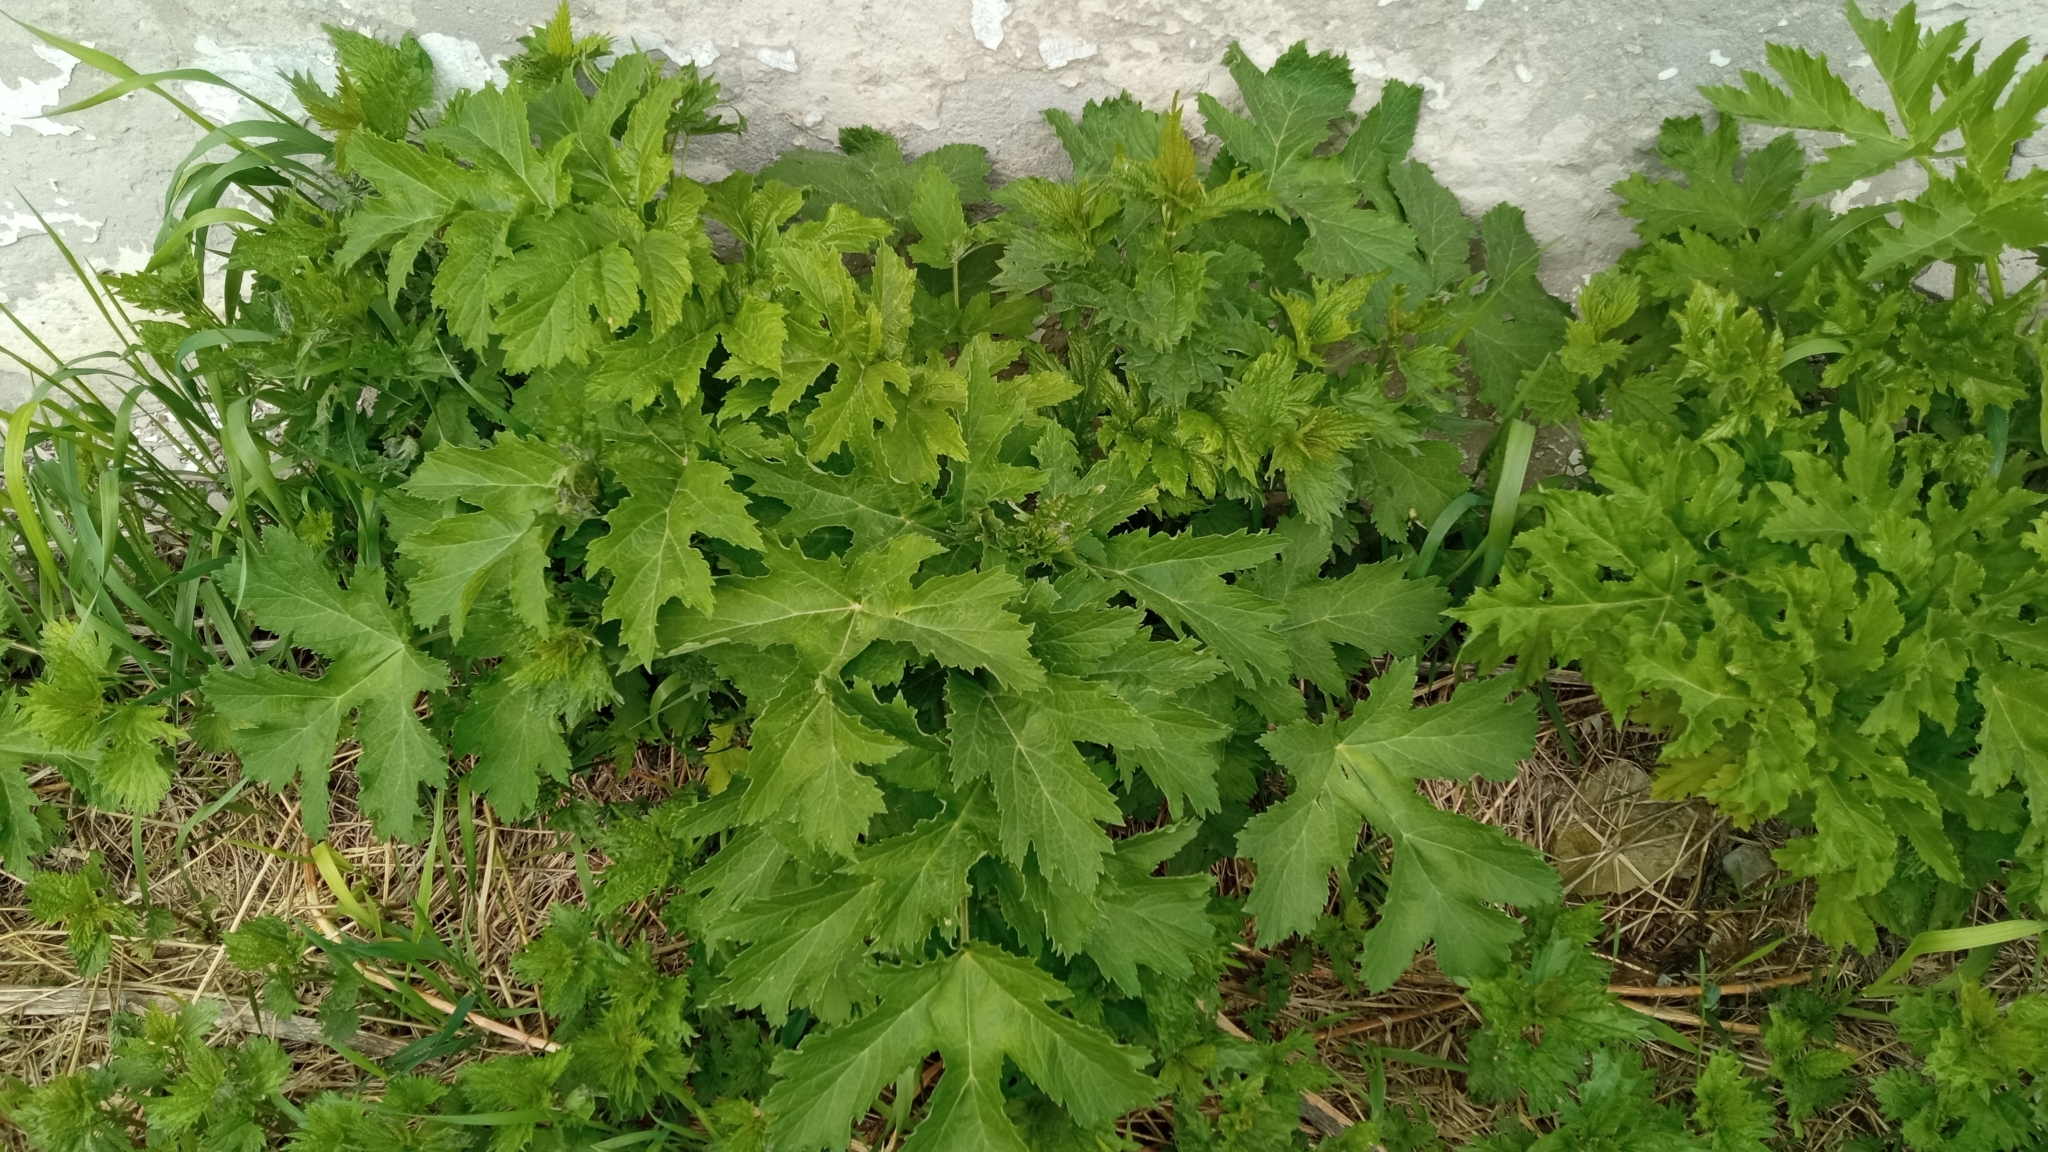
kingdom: Plantae
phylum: Tracheophyta
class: Magnoliopsida
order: Apiales
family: Apiaceae
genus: Heracleum
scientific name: Heracleum sphondylium
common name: Hogweed
